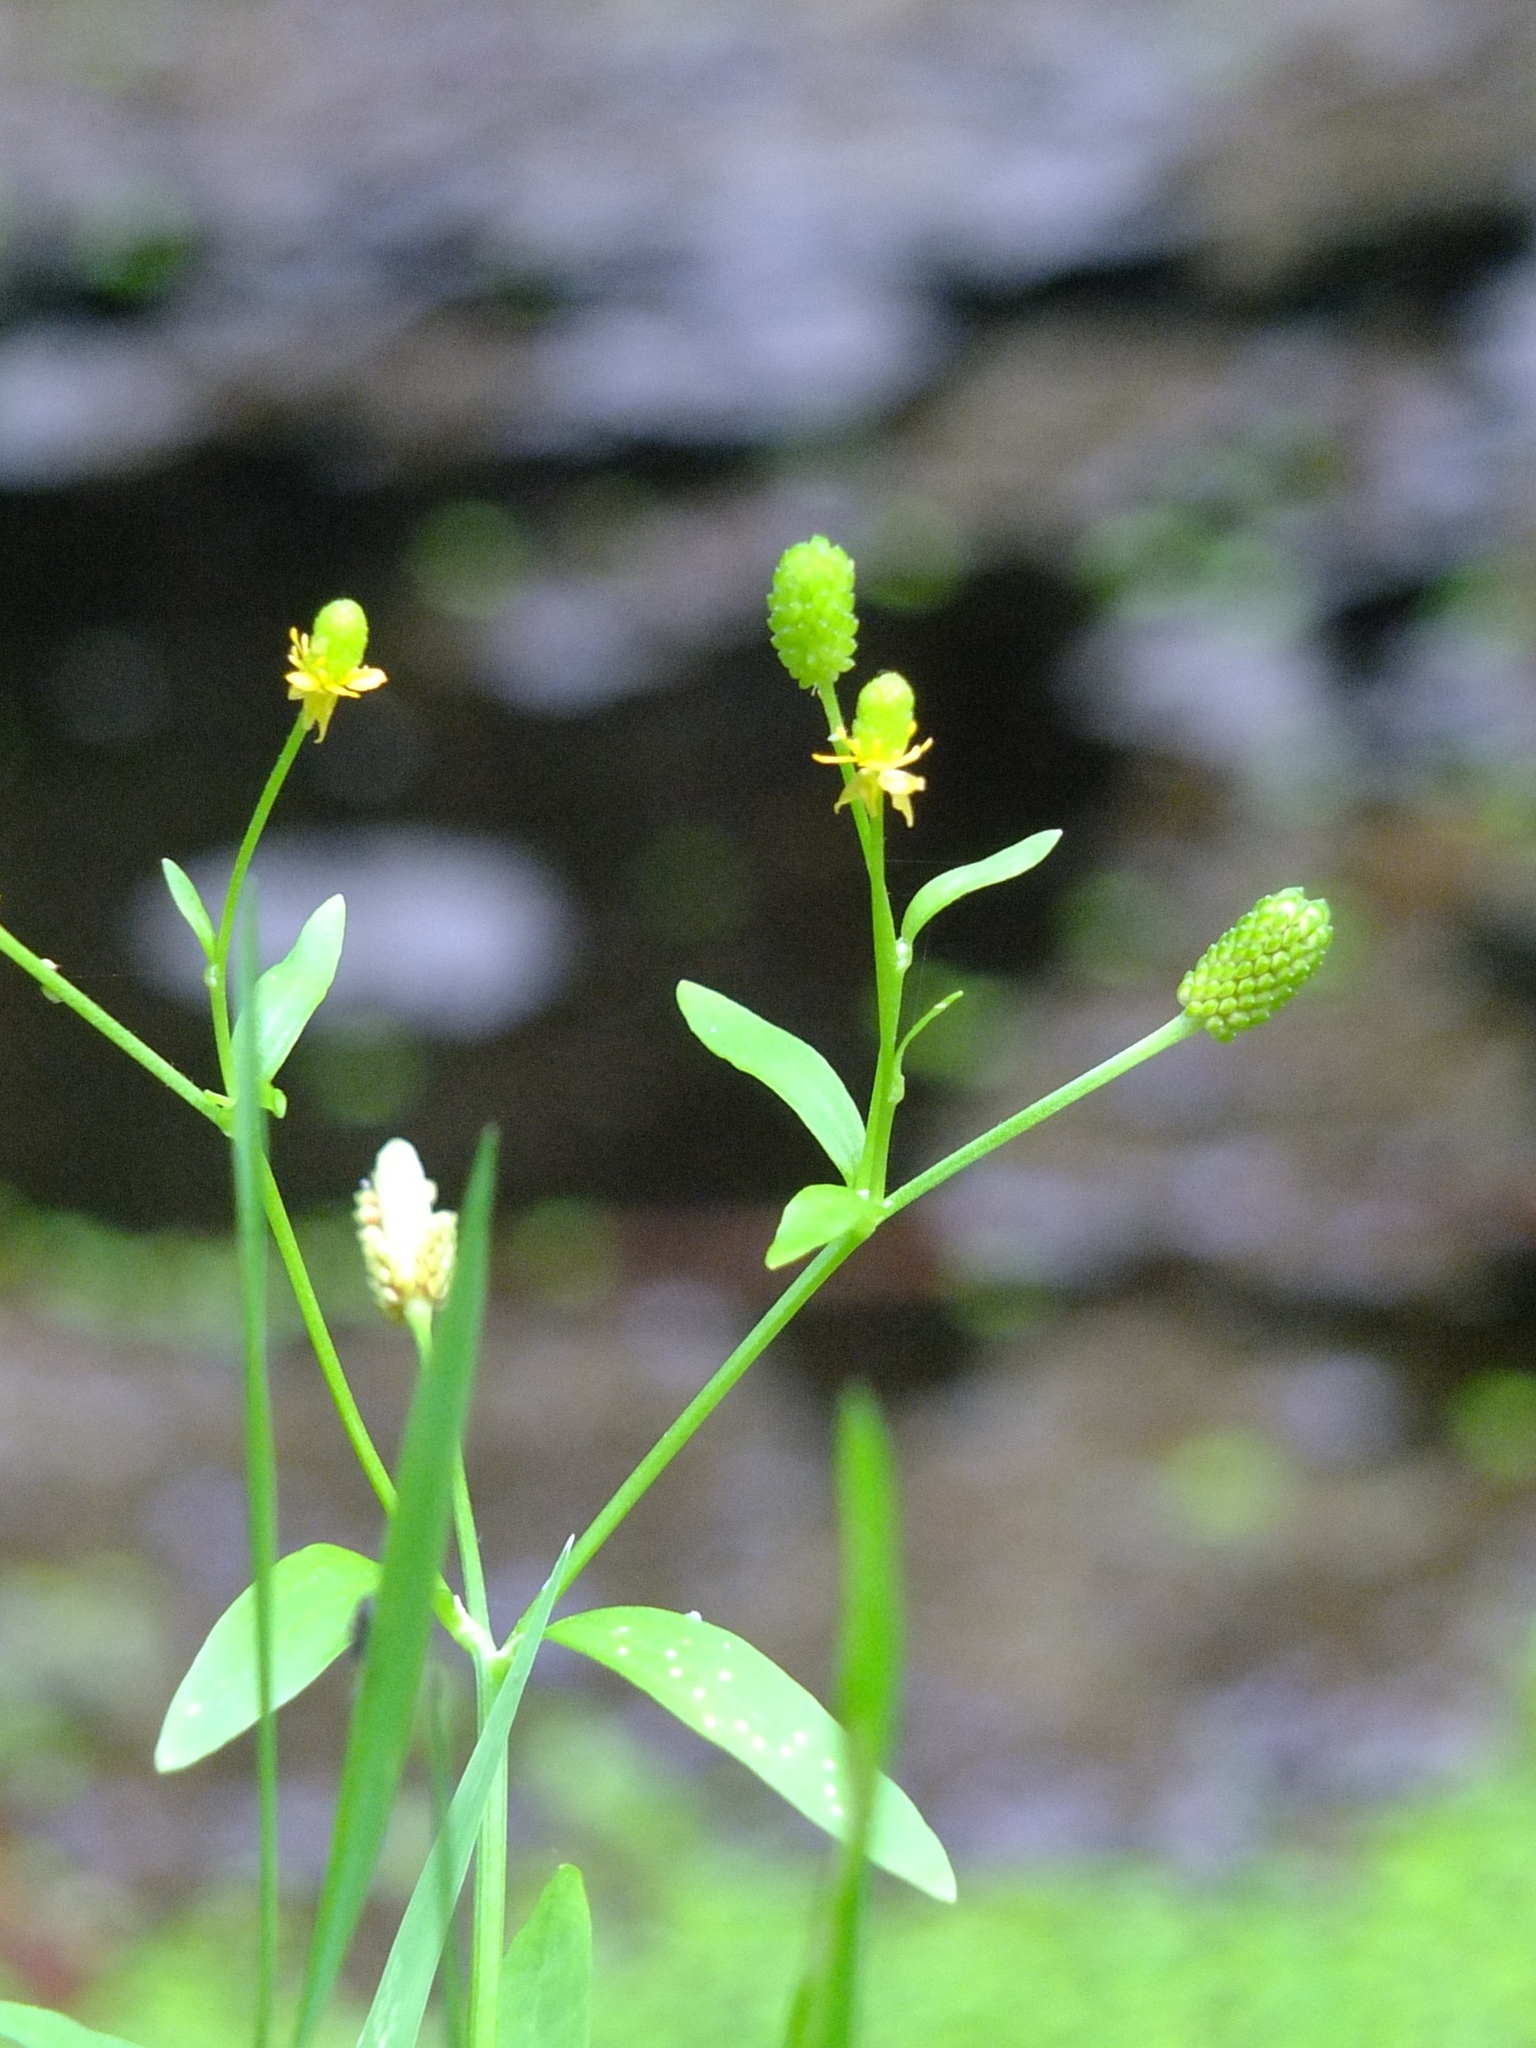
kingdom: Plantae
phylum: Tracheophyta
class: Magnoliopsida
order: Ranunculales
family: Ranunculaceae
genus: Ranunculus
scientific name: Ranunculus sceleratus
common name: Celery-leaved buttercup
